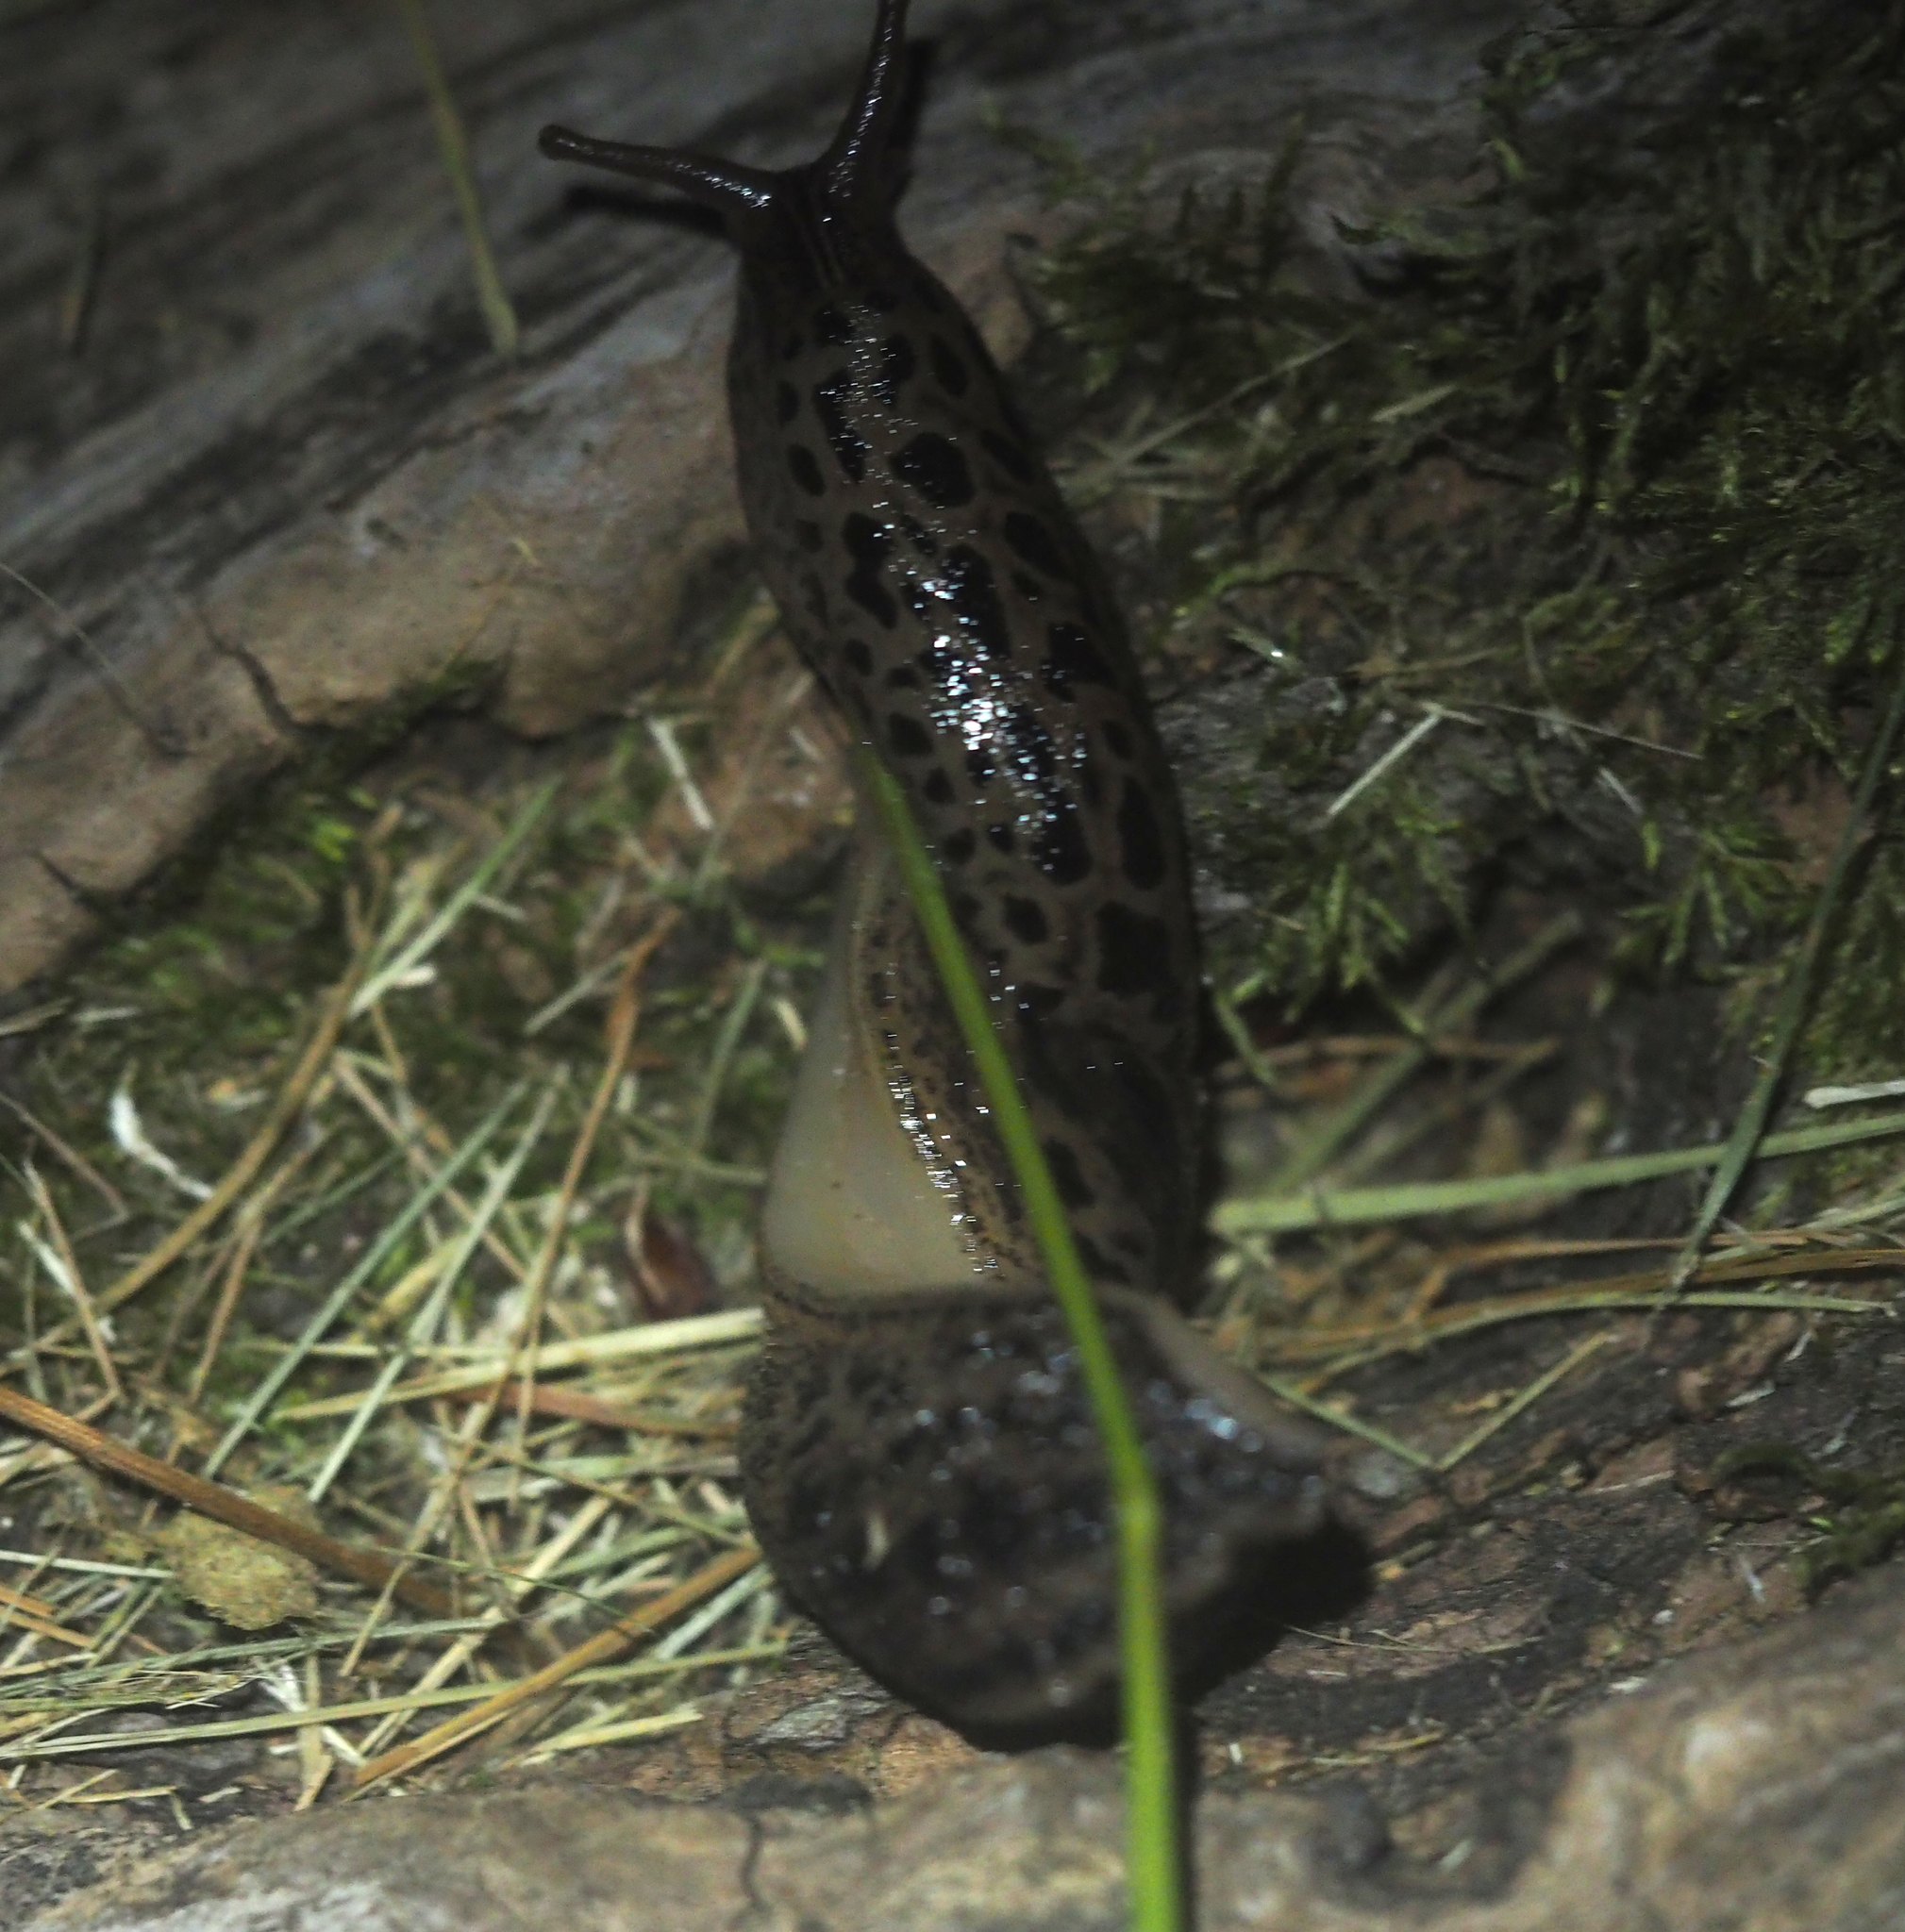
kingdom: Animalia
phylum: Mollusca
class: Gastropoda
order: Stylommatophora
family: Limacidae
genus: Limax
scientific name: Limax maximus
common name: Great grey slug
